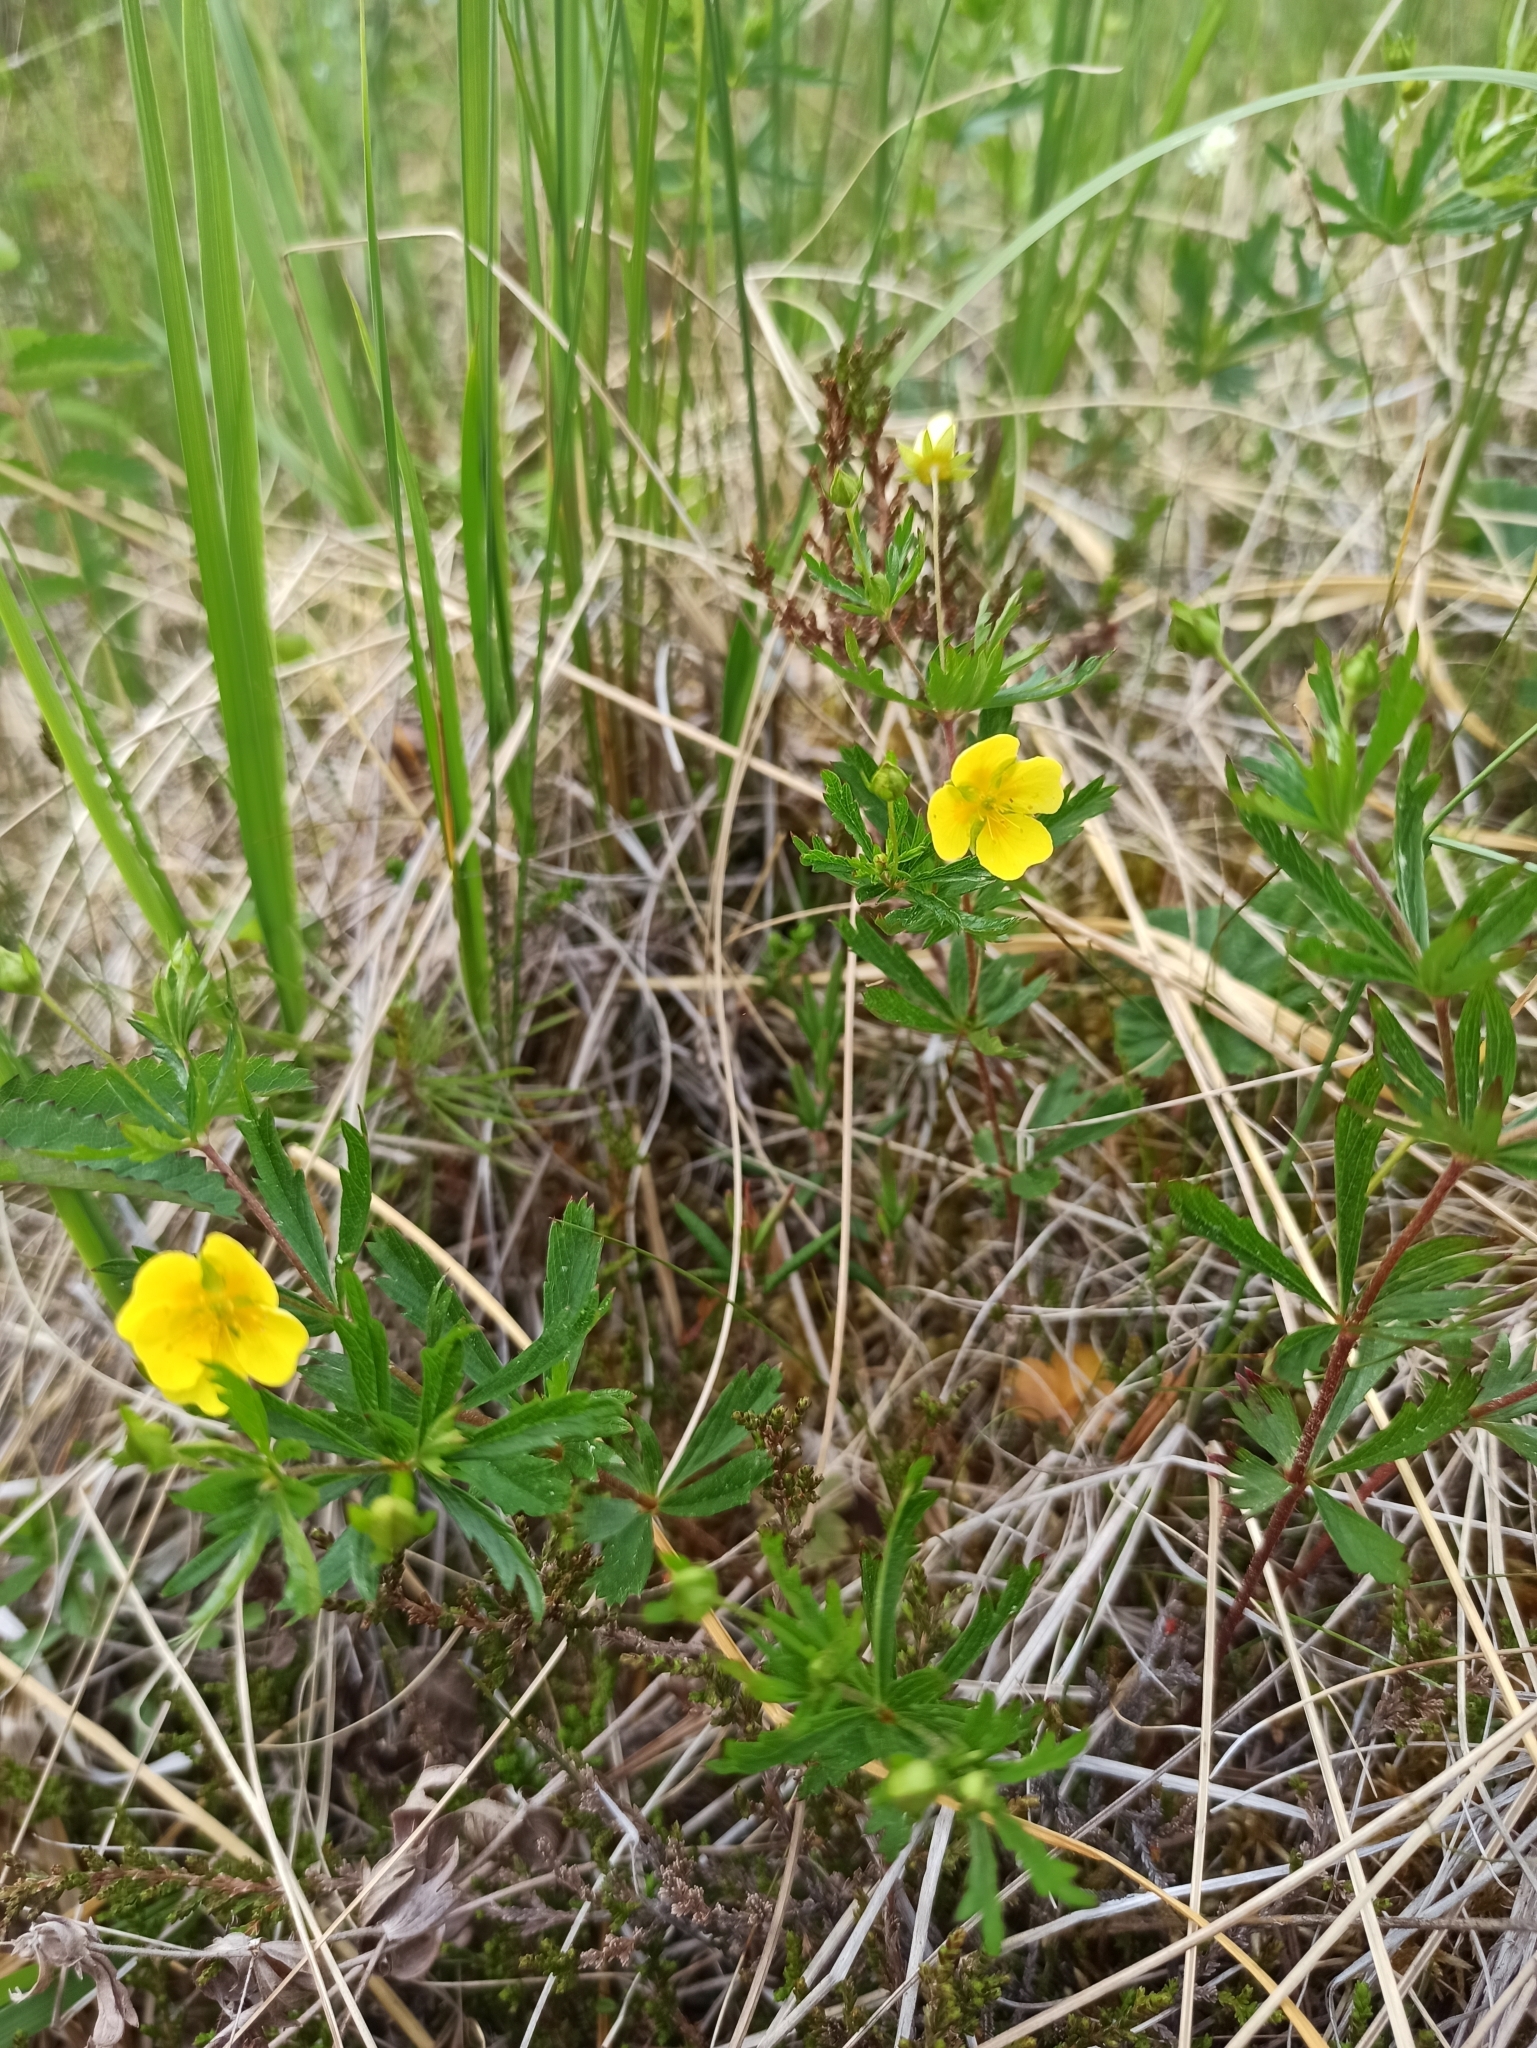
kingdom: Plantae
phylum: Tracheophyta
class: Magnoliopsida
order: Rosales
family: Rosaceae
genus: Potentilla
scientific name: Potentilla erecta
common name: Tormentil
